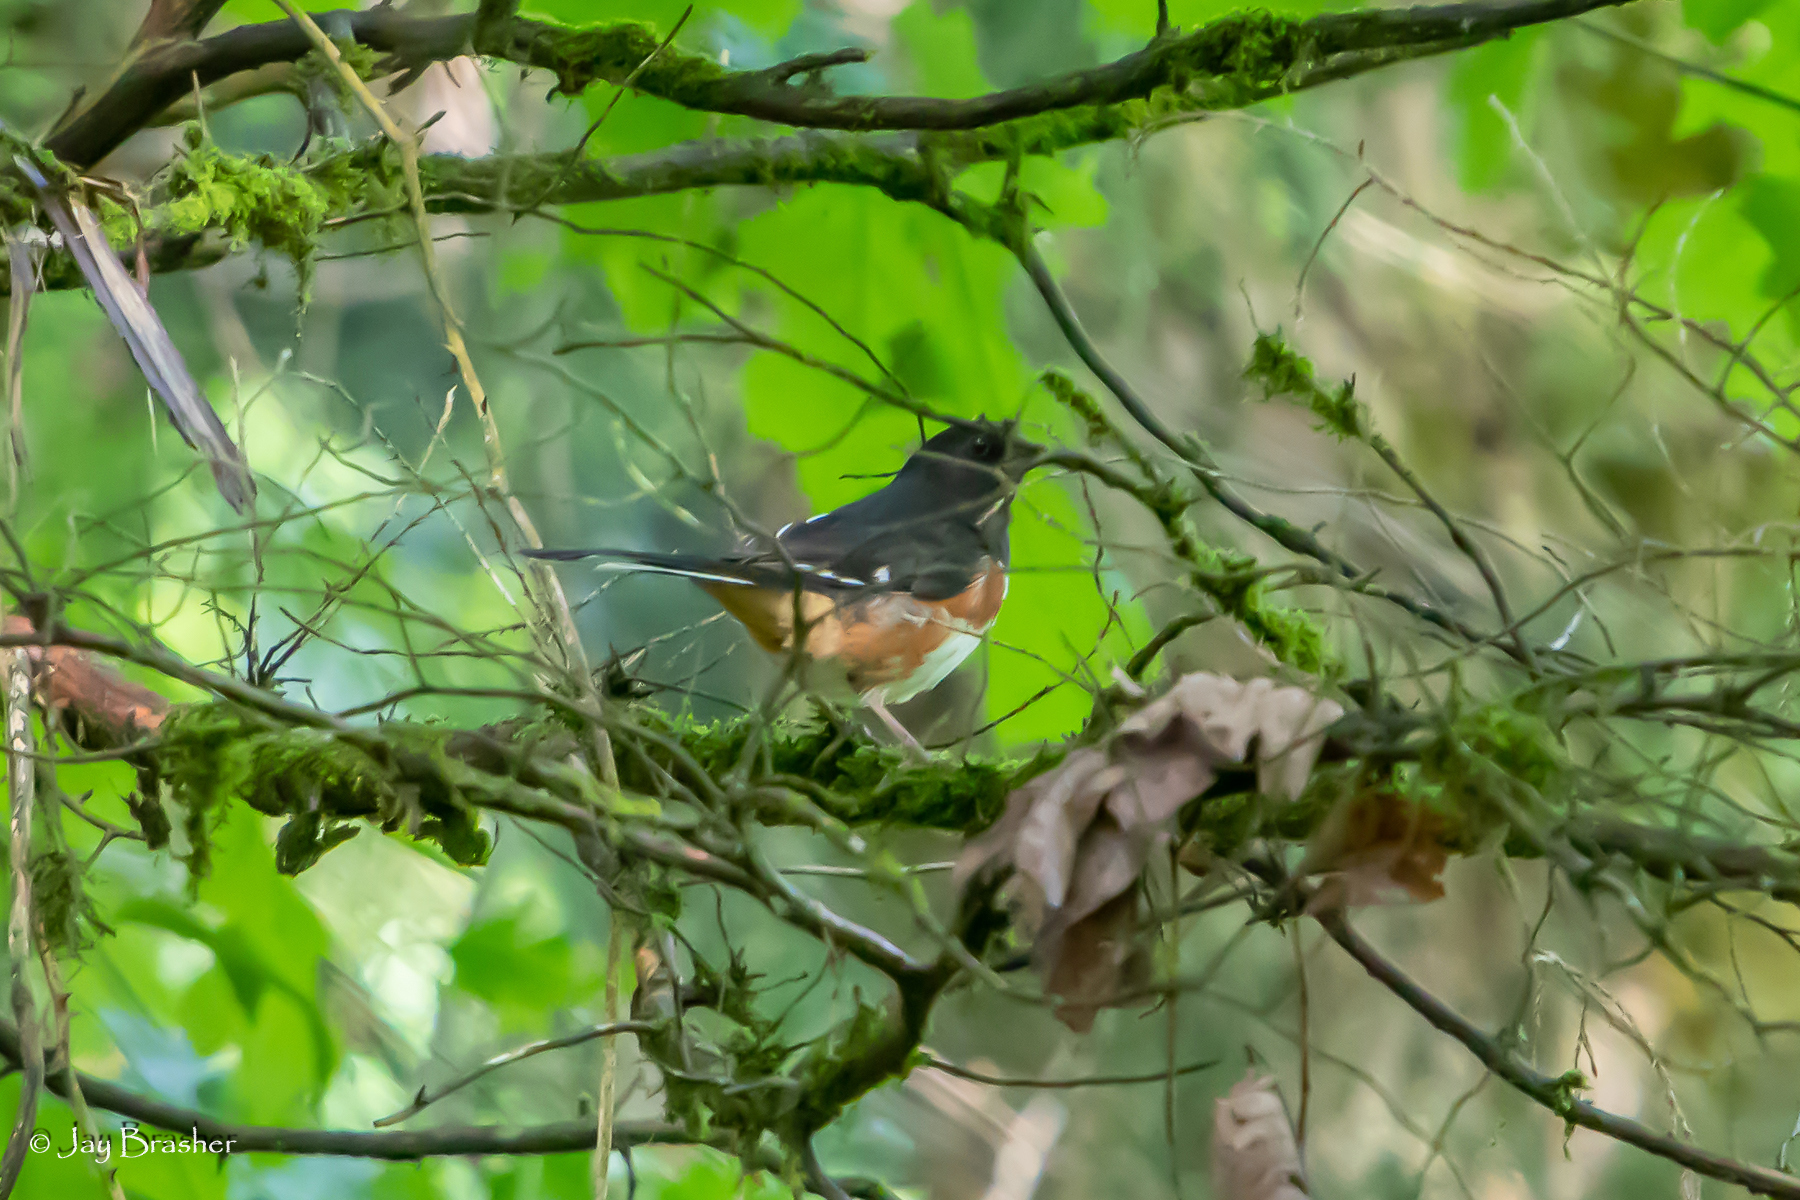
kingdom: Animalia
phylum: Chordata
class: Aves
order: Passeriformes
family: Passerellidae
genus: Pipilo
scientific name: Pipilo erythrophthalmus
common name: Eastern towhee
